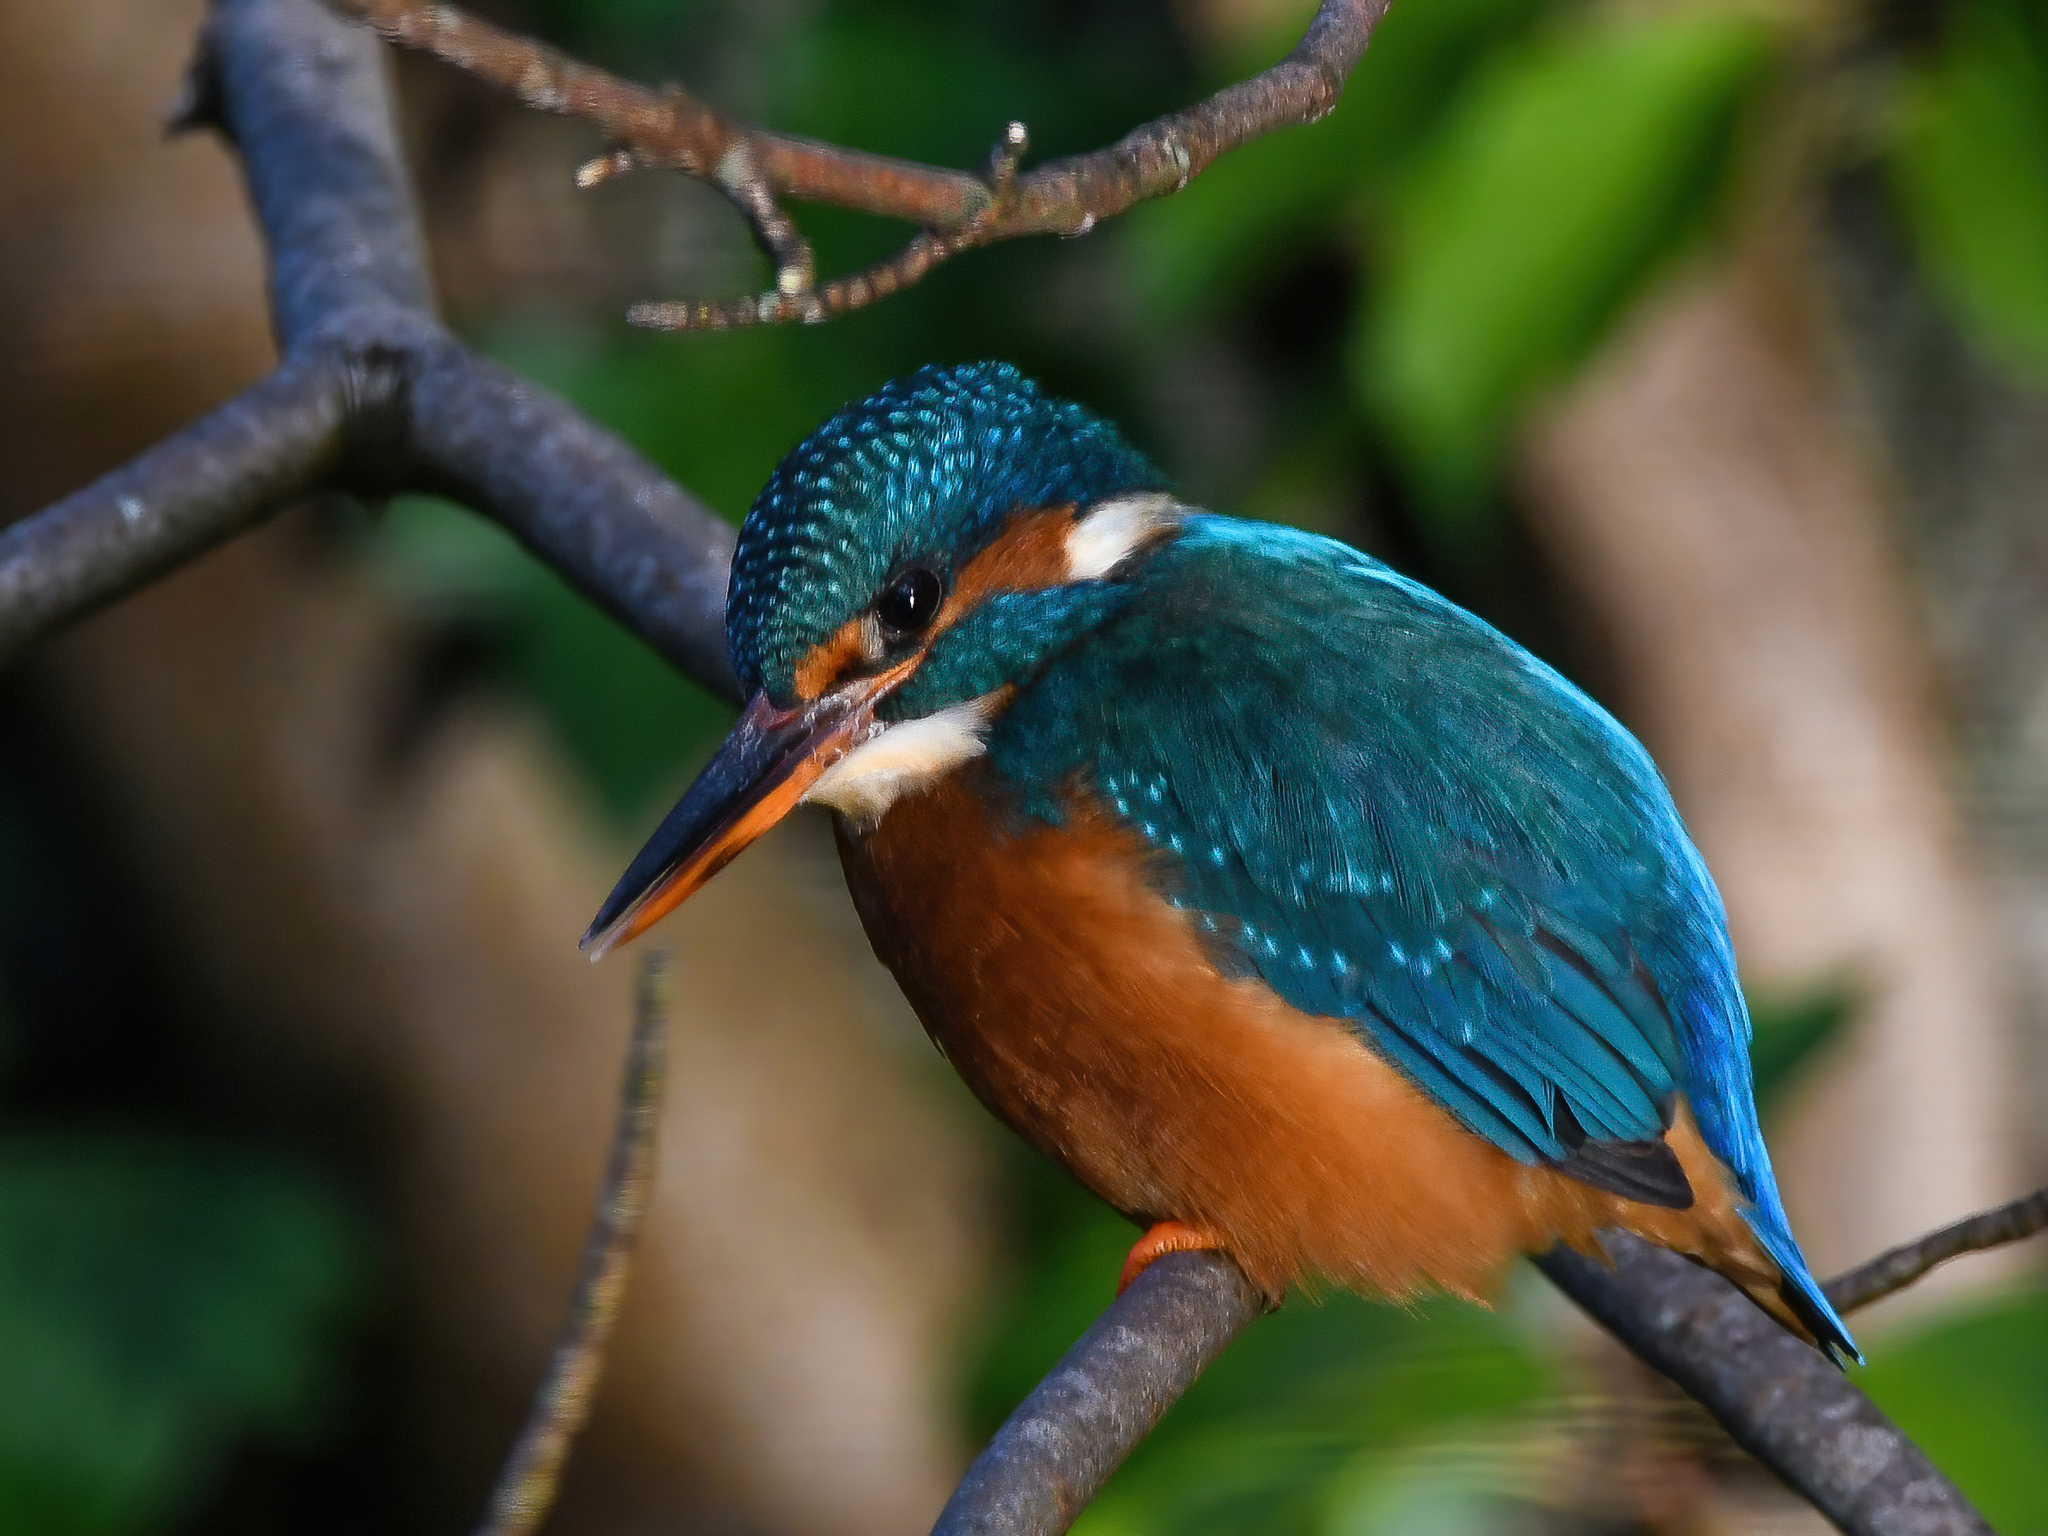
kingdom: Animalia
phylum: Chordata
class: Aves
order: Coraciiformes
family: Alcedinidae
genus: Alcedo
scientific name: Alcedo atthis
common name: Common kingfisher
